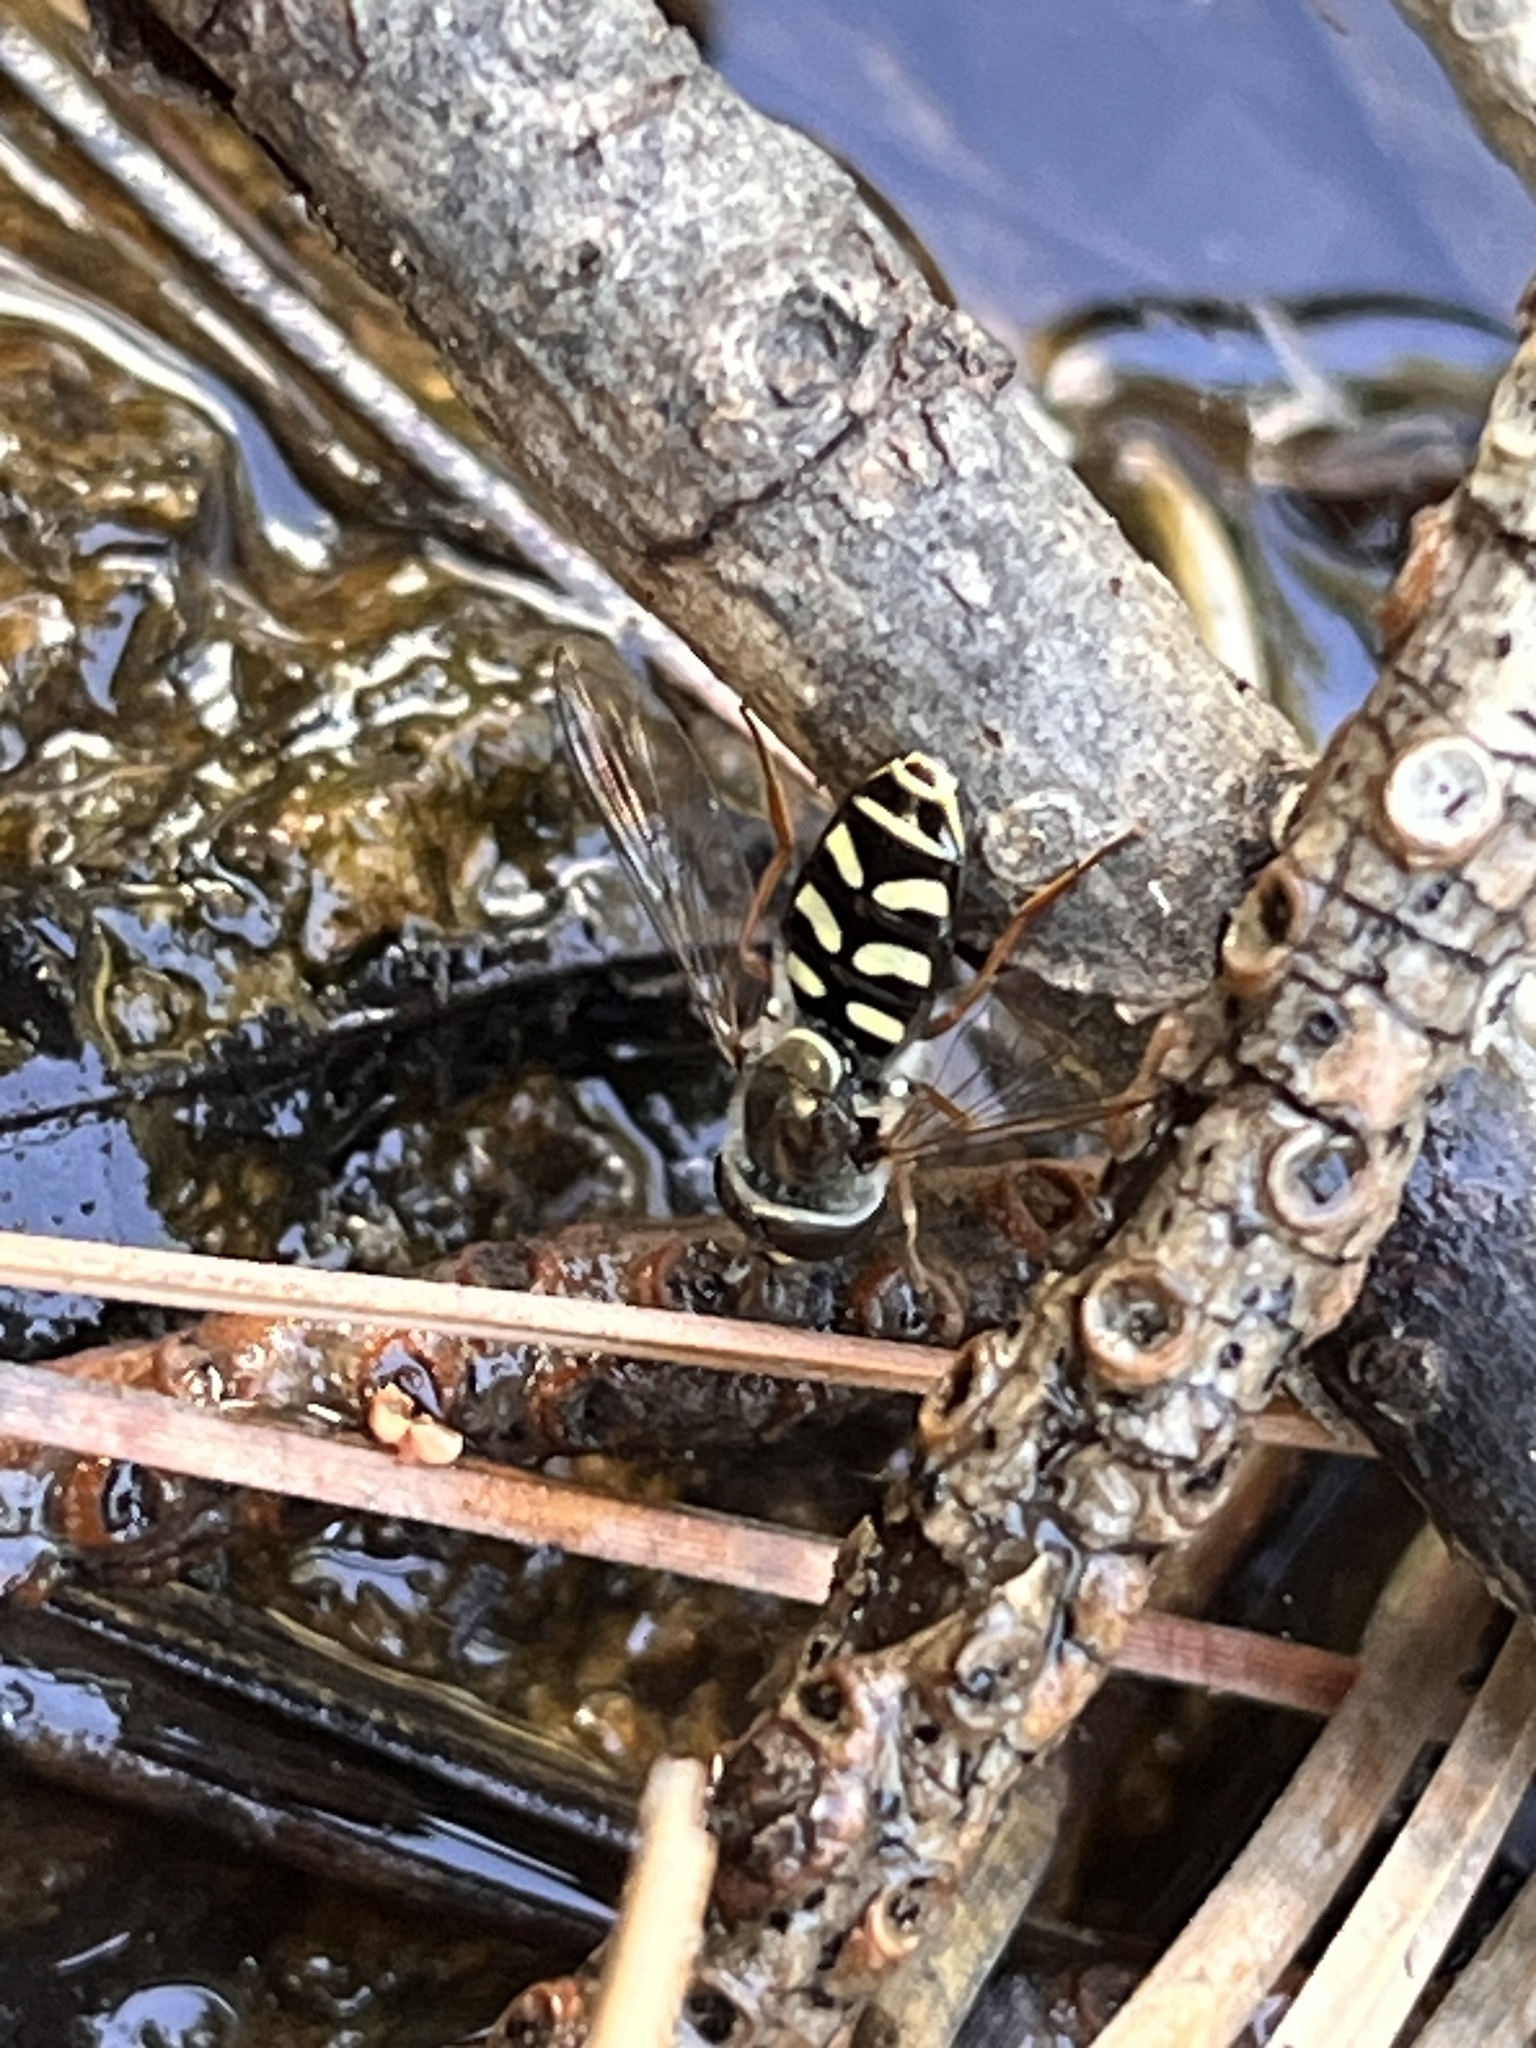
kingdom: Animalia
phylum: Arthropoda
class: Insecta
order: Diptera
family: Syrphidae
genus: Eupeodes
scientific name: Eupeodes volucris
